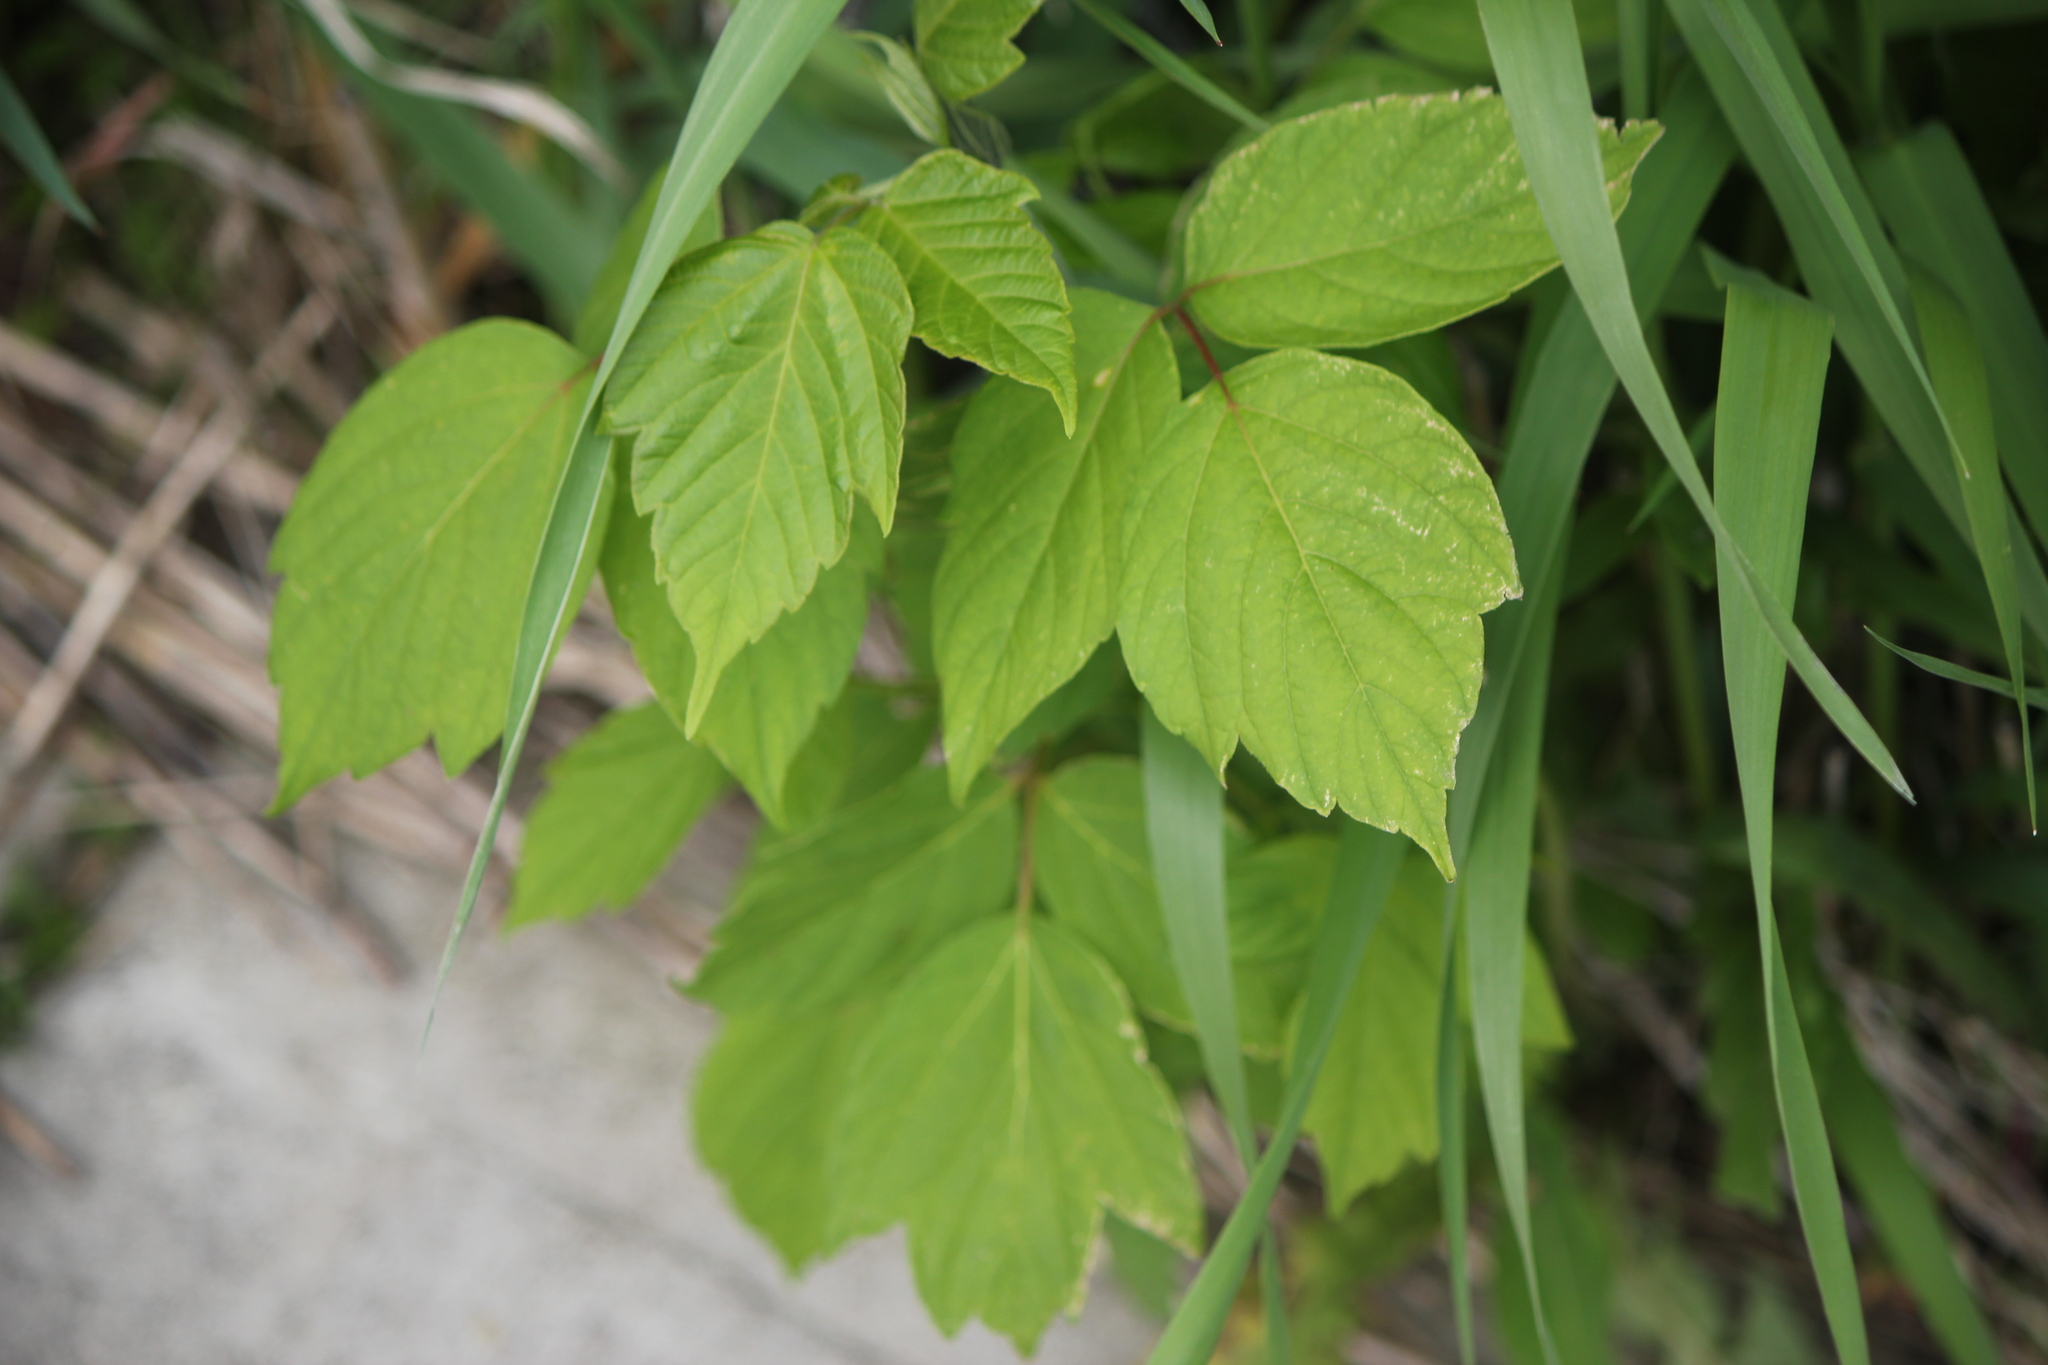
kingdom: Plantae
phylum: Tracheophyta
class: Magnoliopsida
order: Sapindales
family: Sapindaceae
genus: Acer
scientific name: Acer negundo
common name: Ashleaf maple
